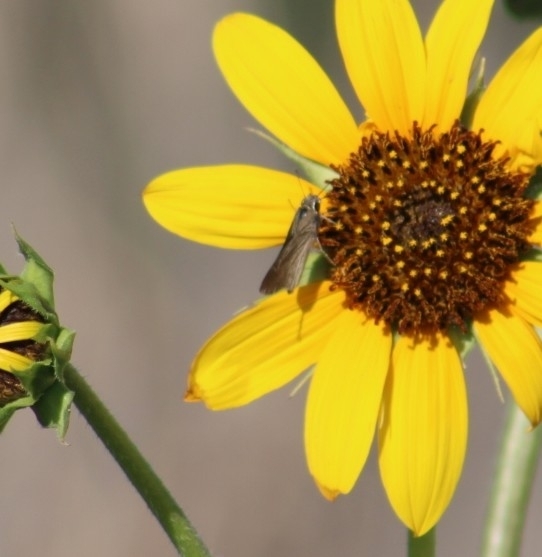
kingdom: Animalia
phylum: Arthropoda
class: Insecta
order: Lepidoptera
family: Hesperiidae
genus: Lerodea
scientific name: Lerodea eufala
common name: Eufala skipper
